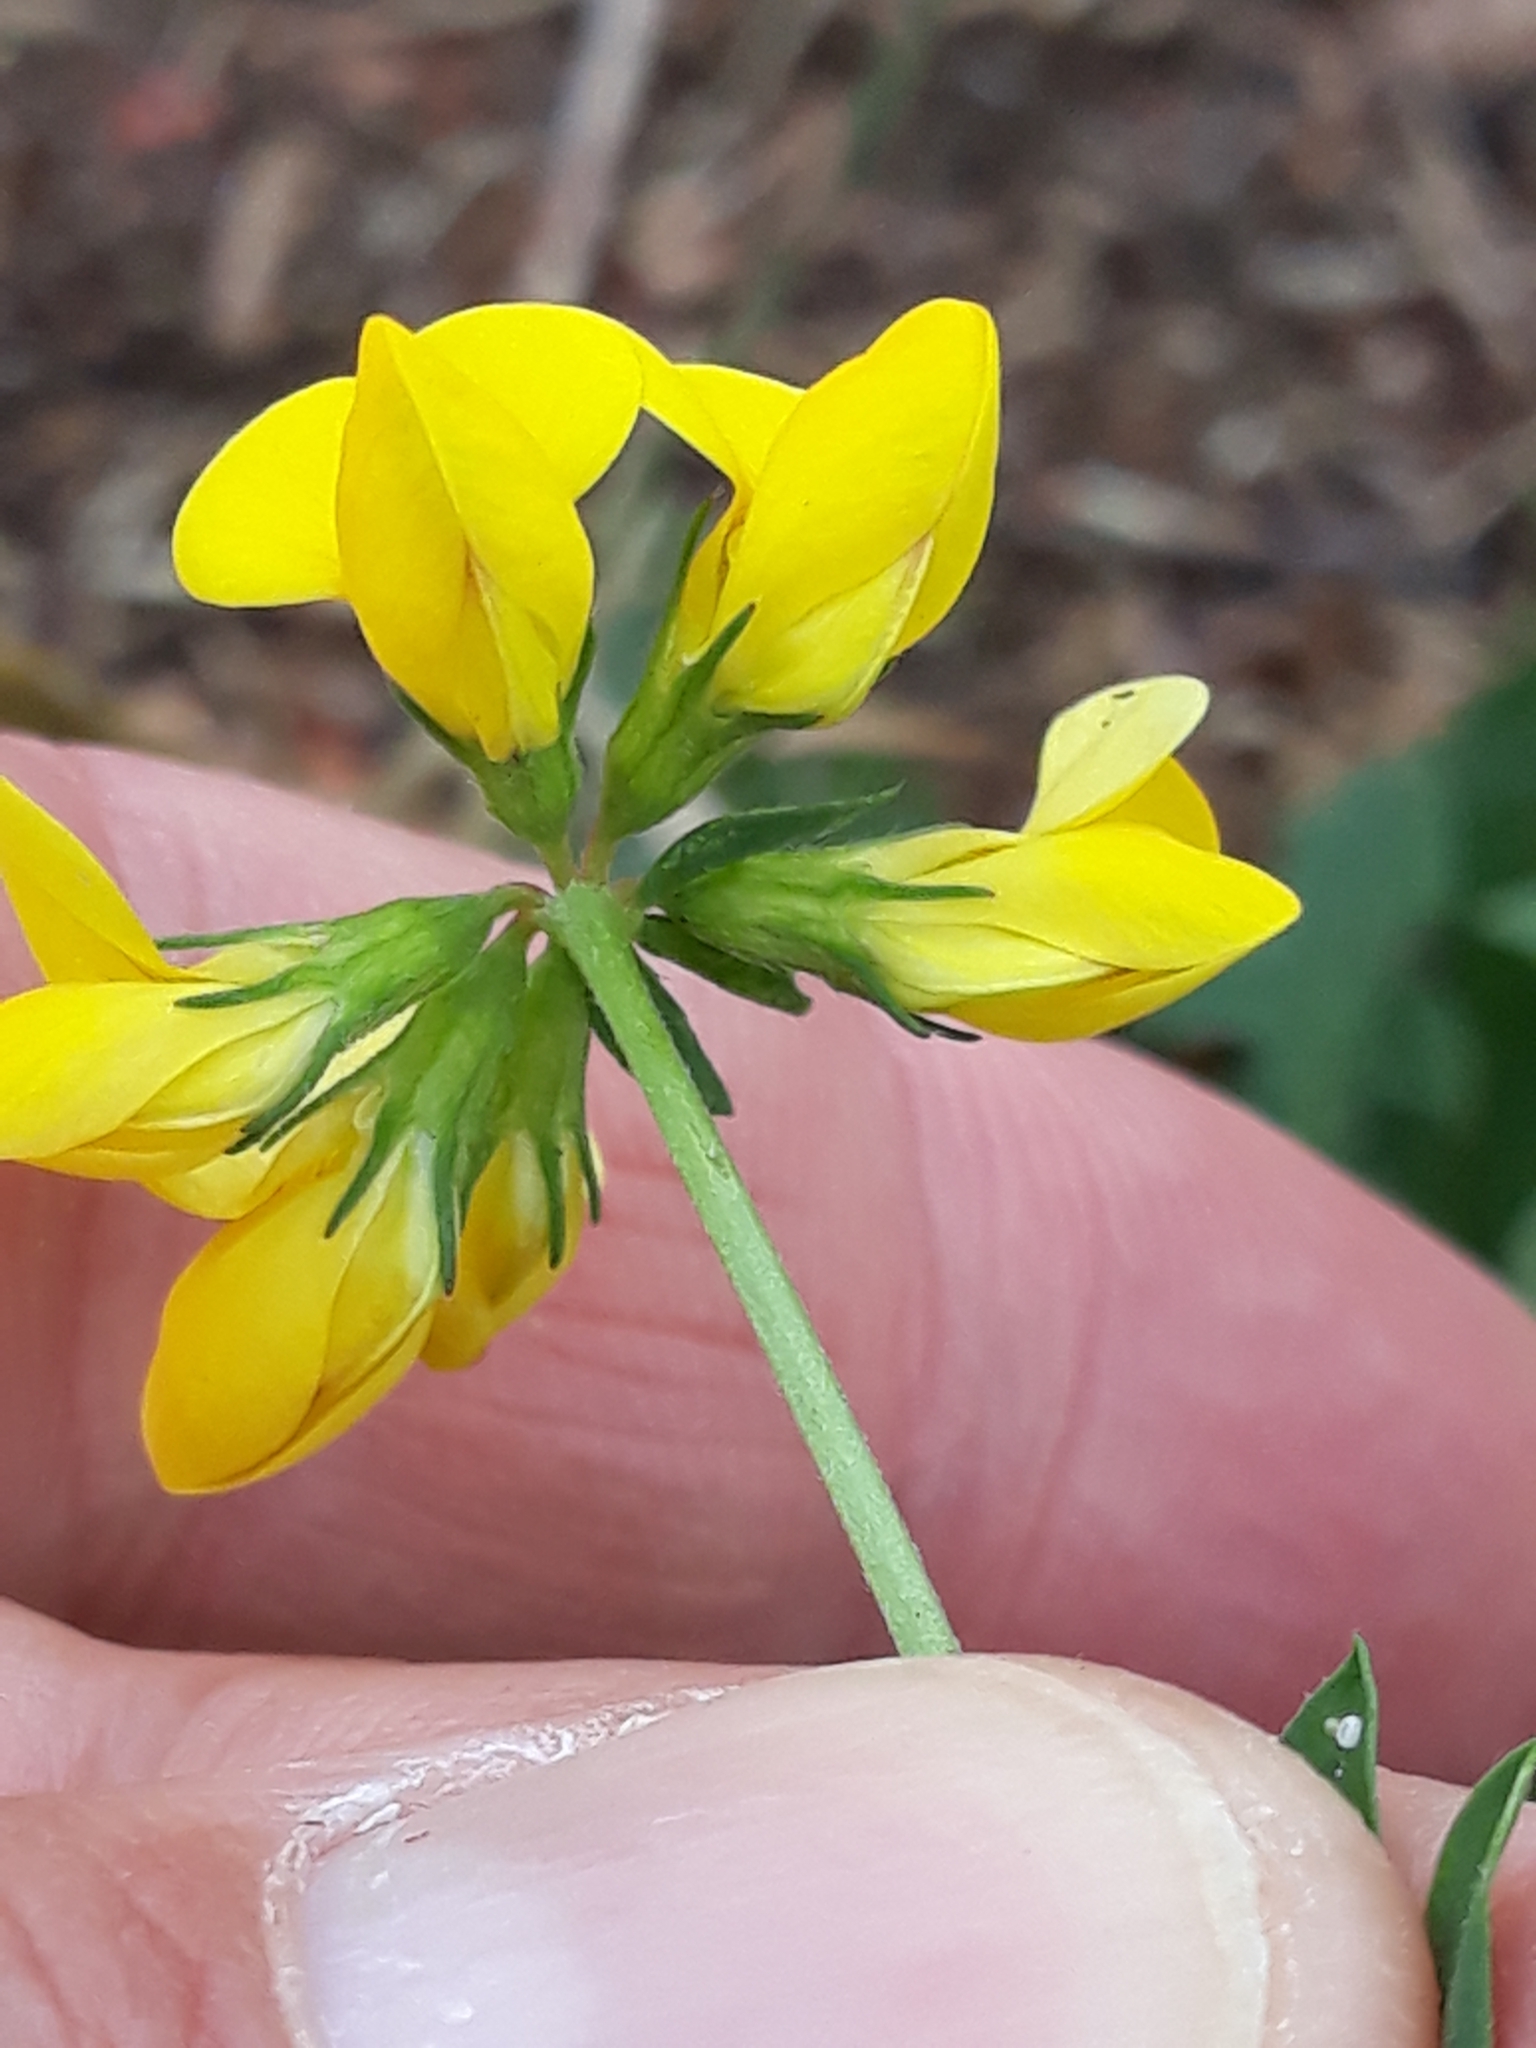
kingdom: Plantae
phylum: Tracheophyta
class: Magnoliopsida
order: Fabales
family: Fabaceae
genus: Lotus
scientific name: Lotus corniculatus
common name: Common bird's-foot-trefoil
